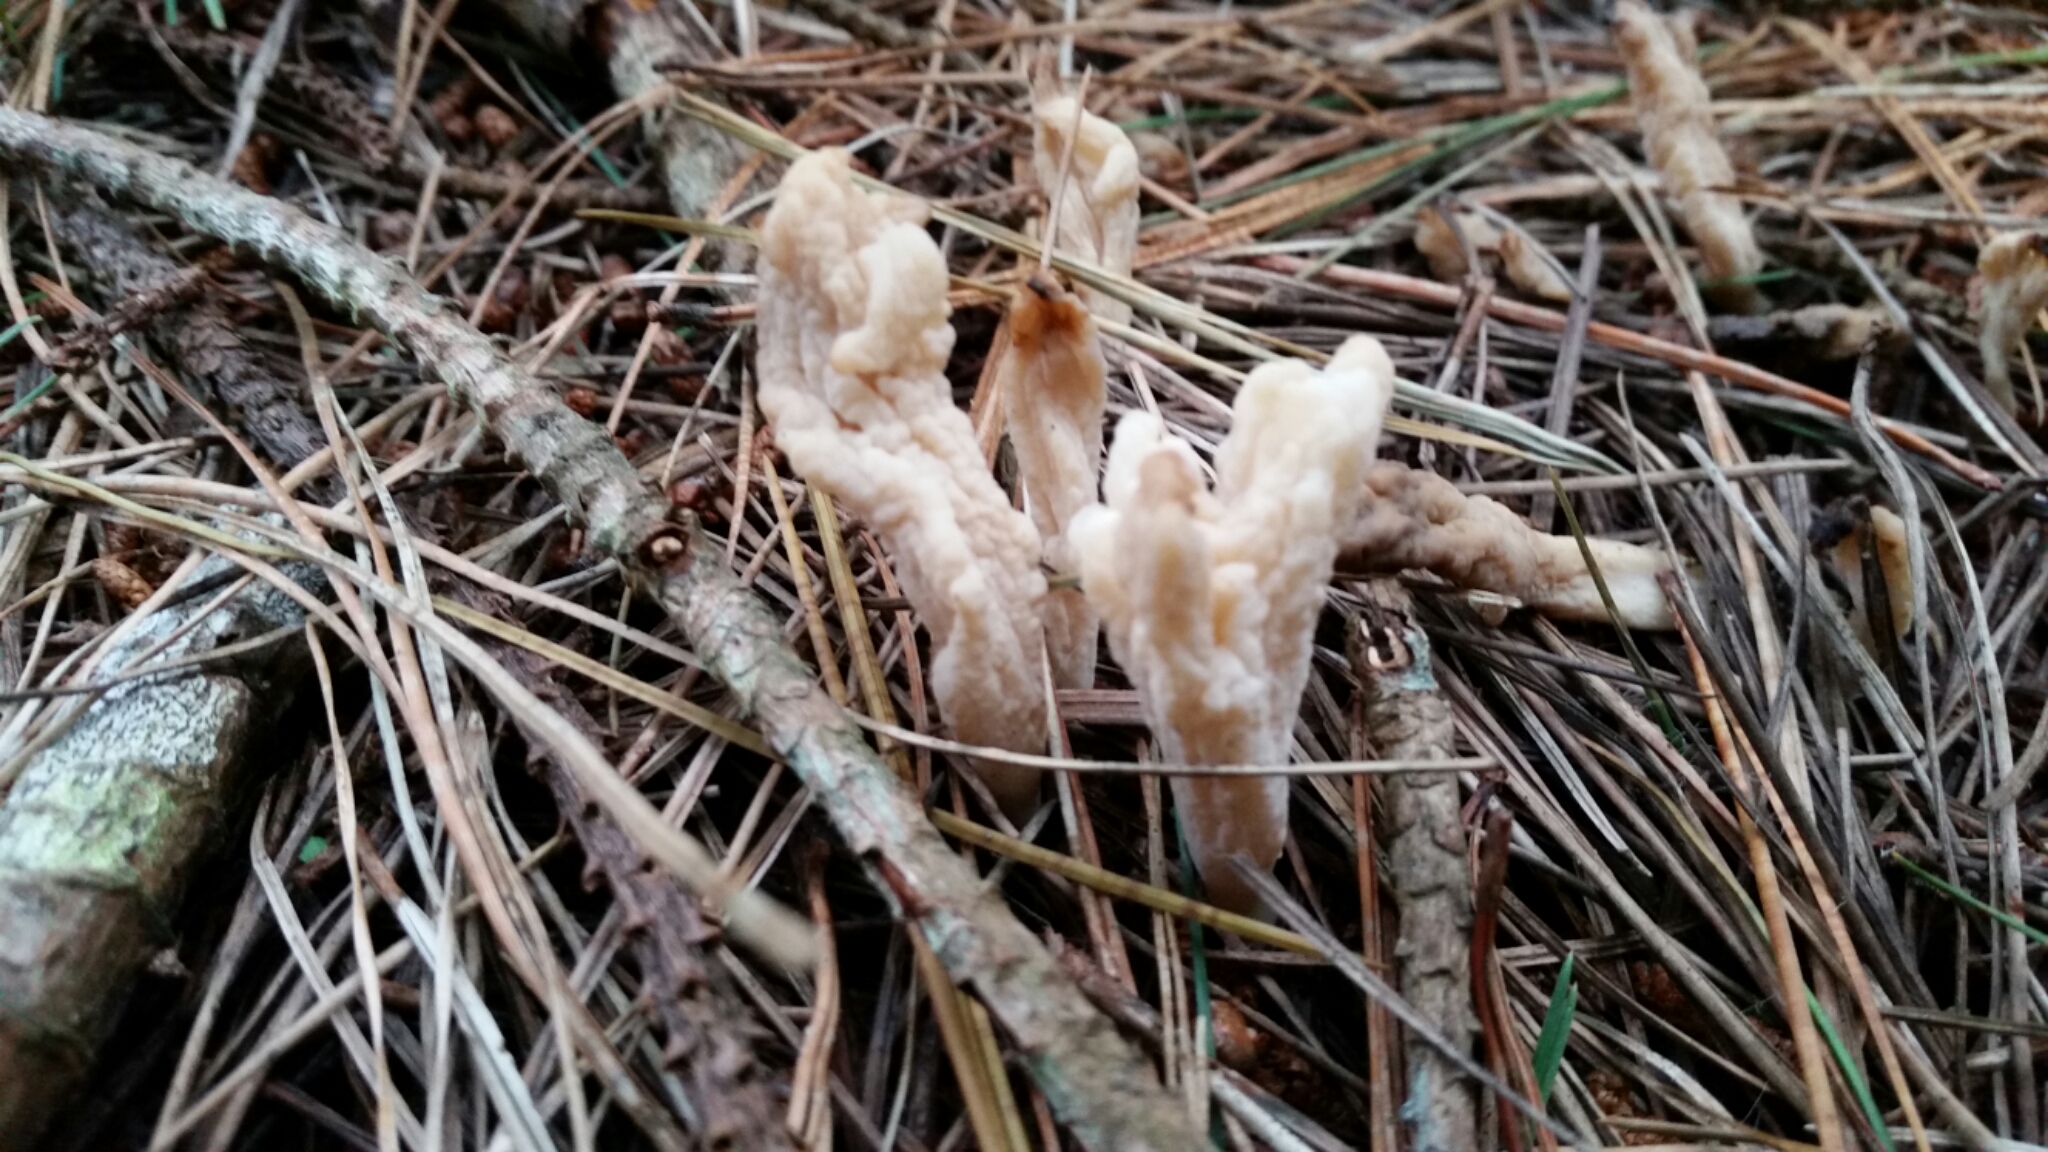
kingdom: Fungi
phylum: Basidiomycota
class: Agaricomycetes
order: Cantharellales
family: Hydnaceae
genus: Clavulina
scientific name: Clavulina rugosa
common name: Wrinkled club
